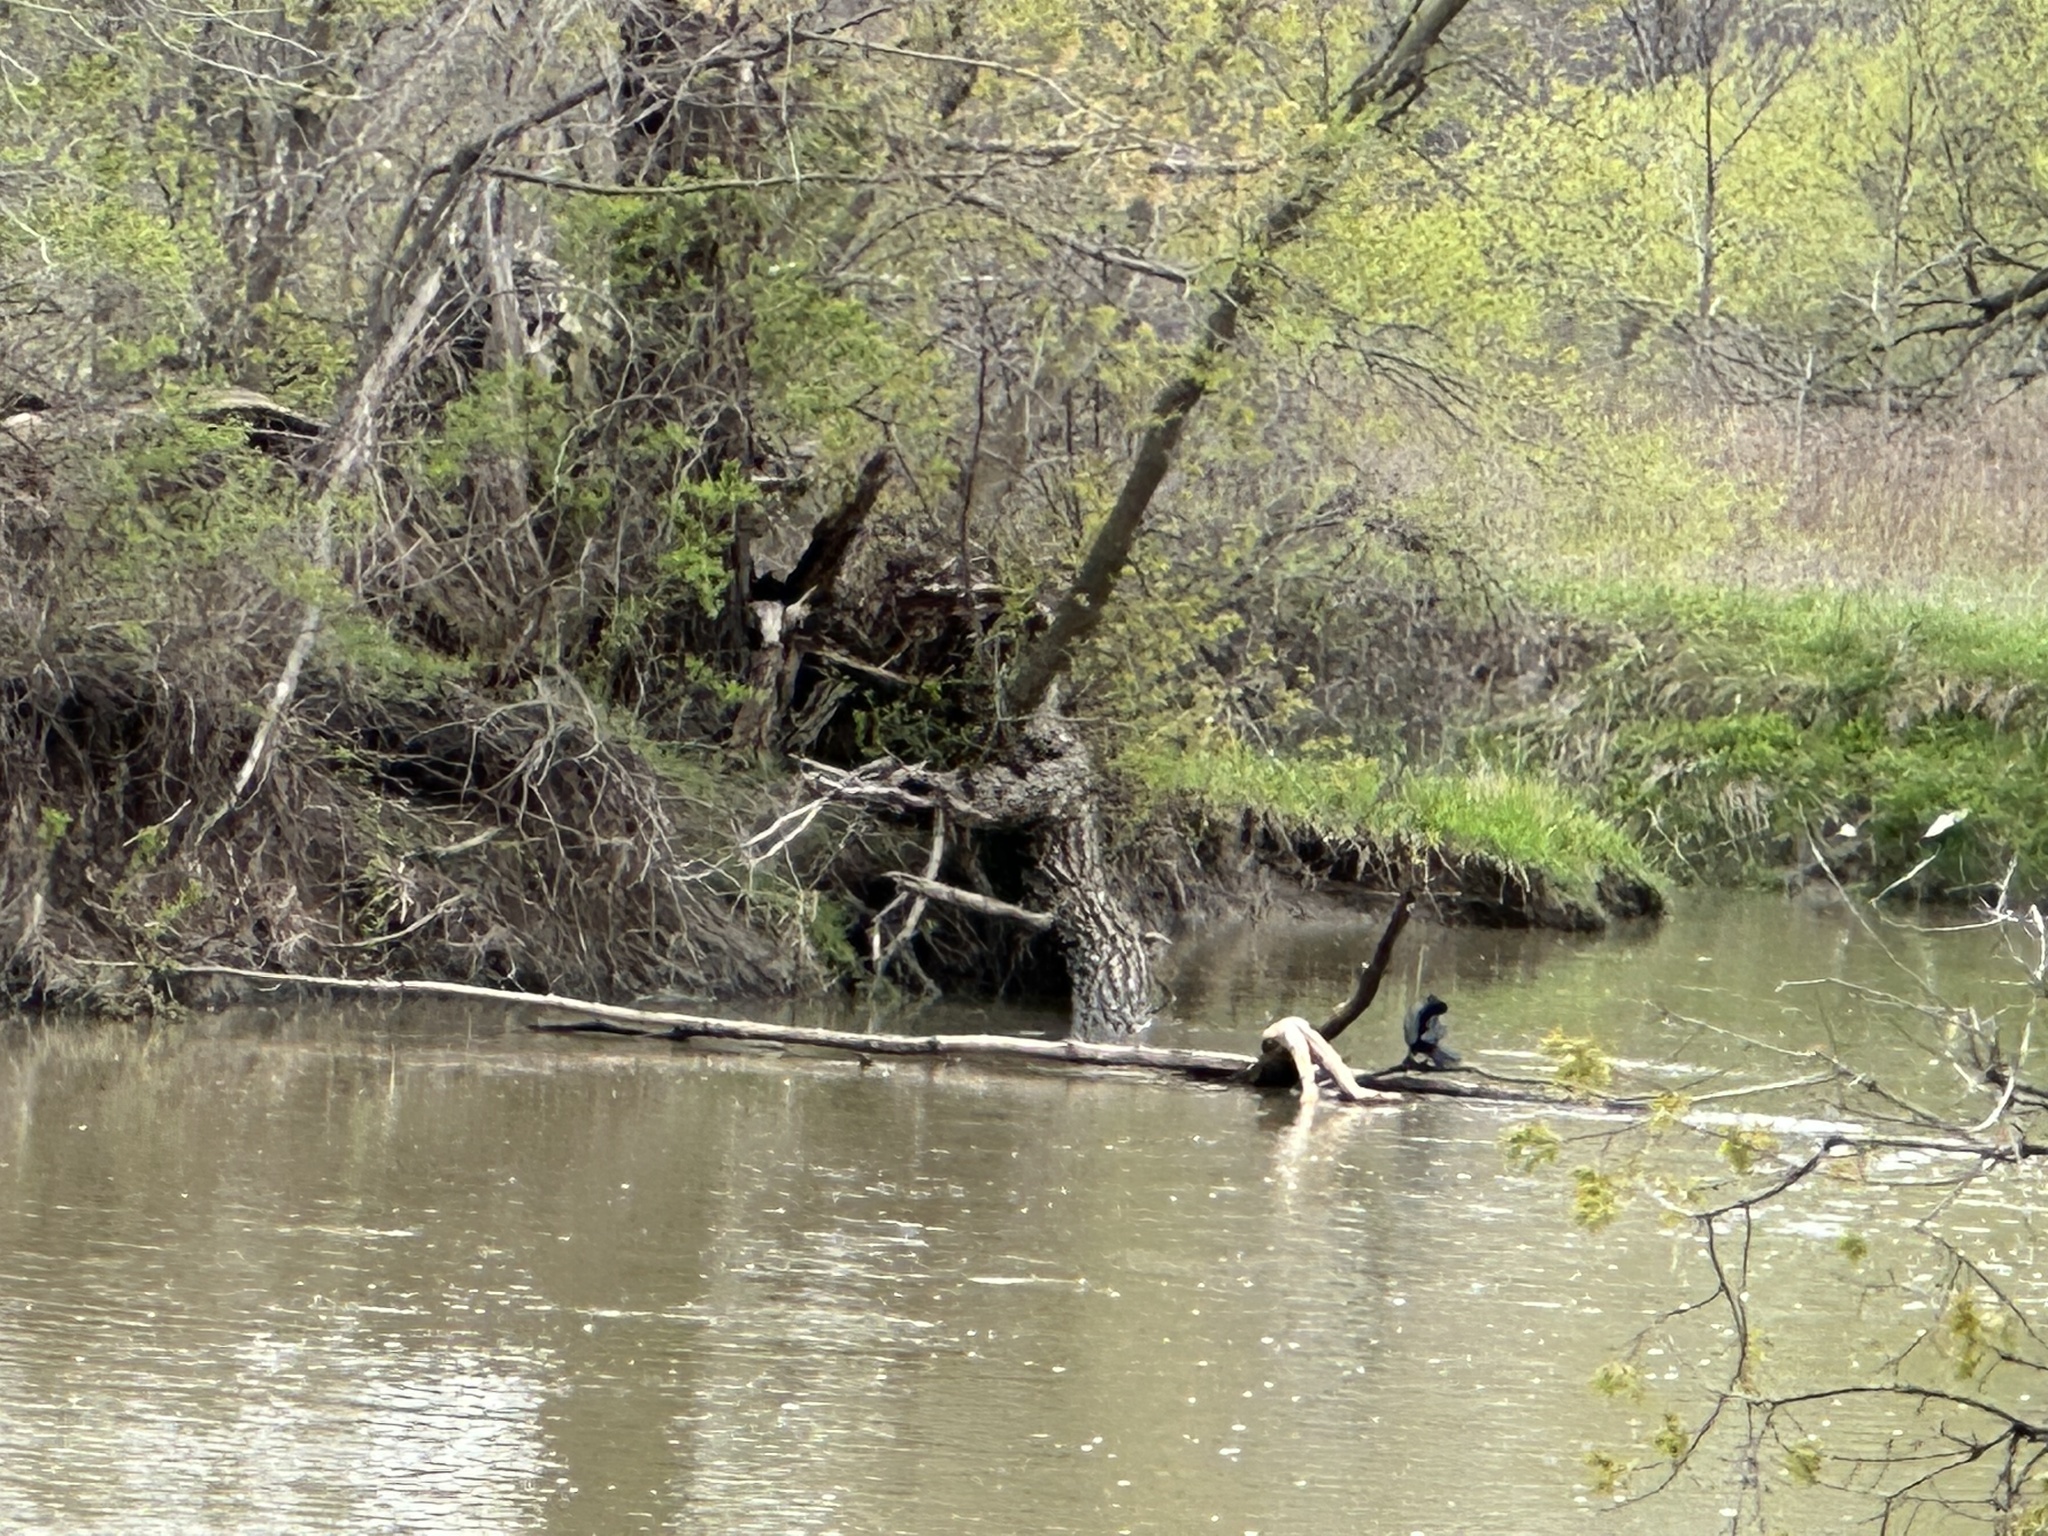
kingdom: Animalia
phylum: Chordata
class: Aves
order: Suliformes
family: Phalacrocoracidae
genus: Phalacrocorax
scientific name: Phalacrocorax auritus
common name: Double-crested cormorant
